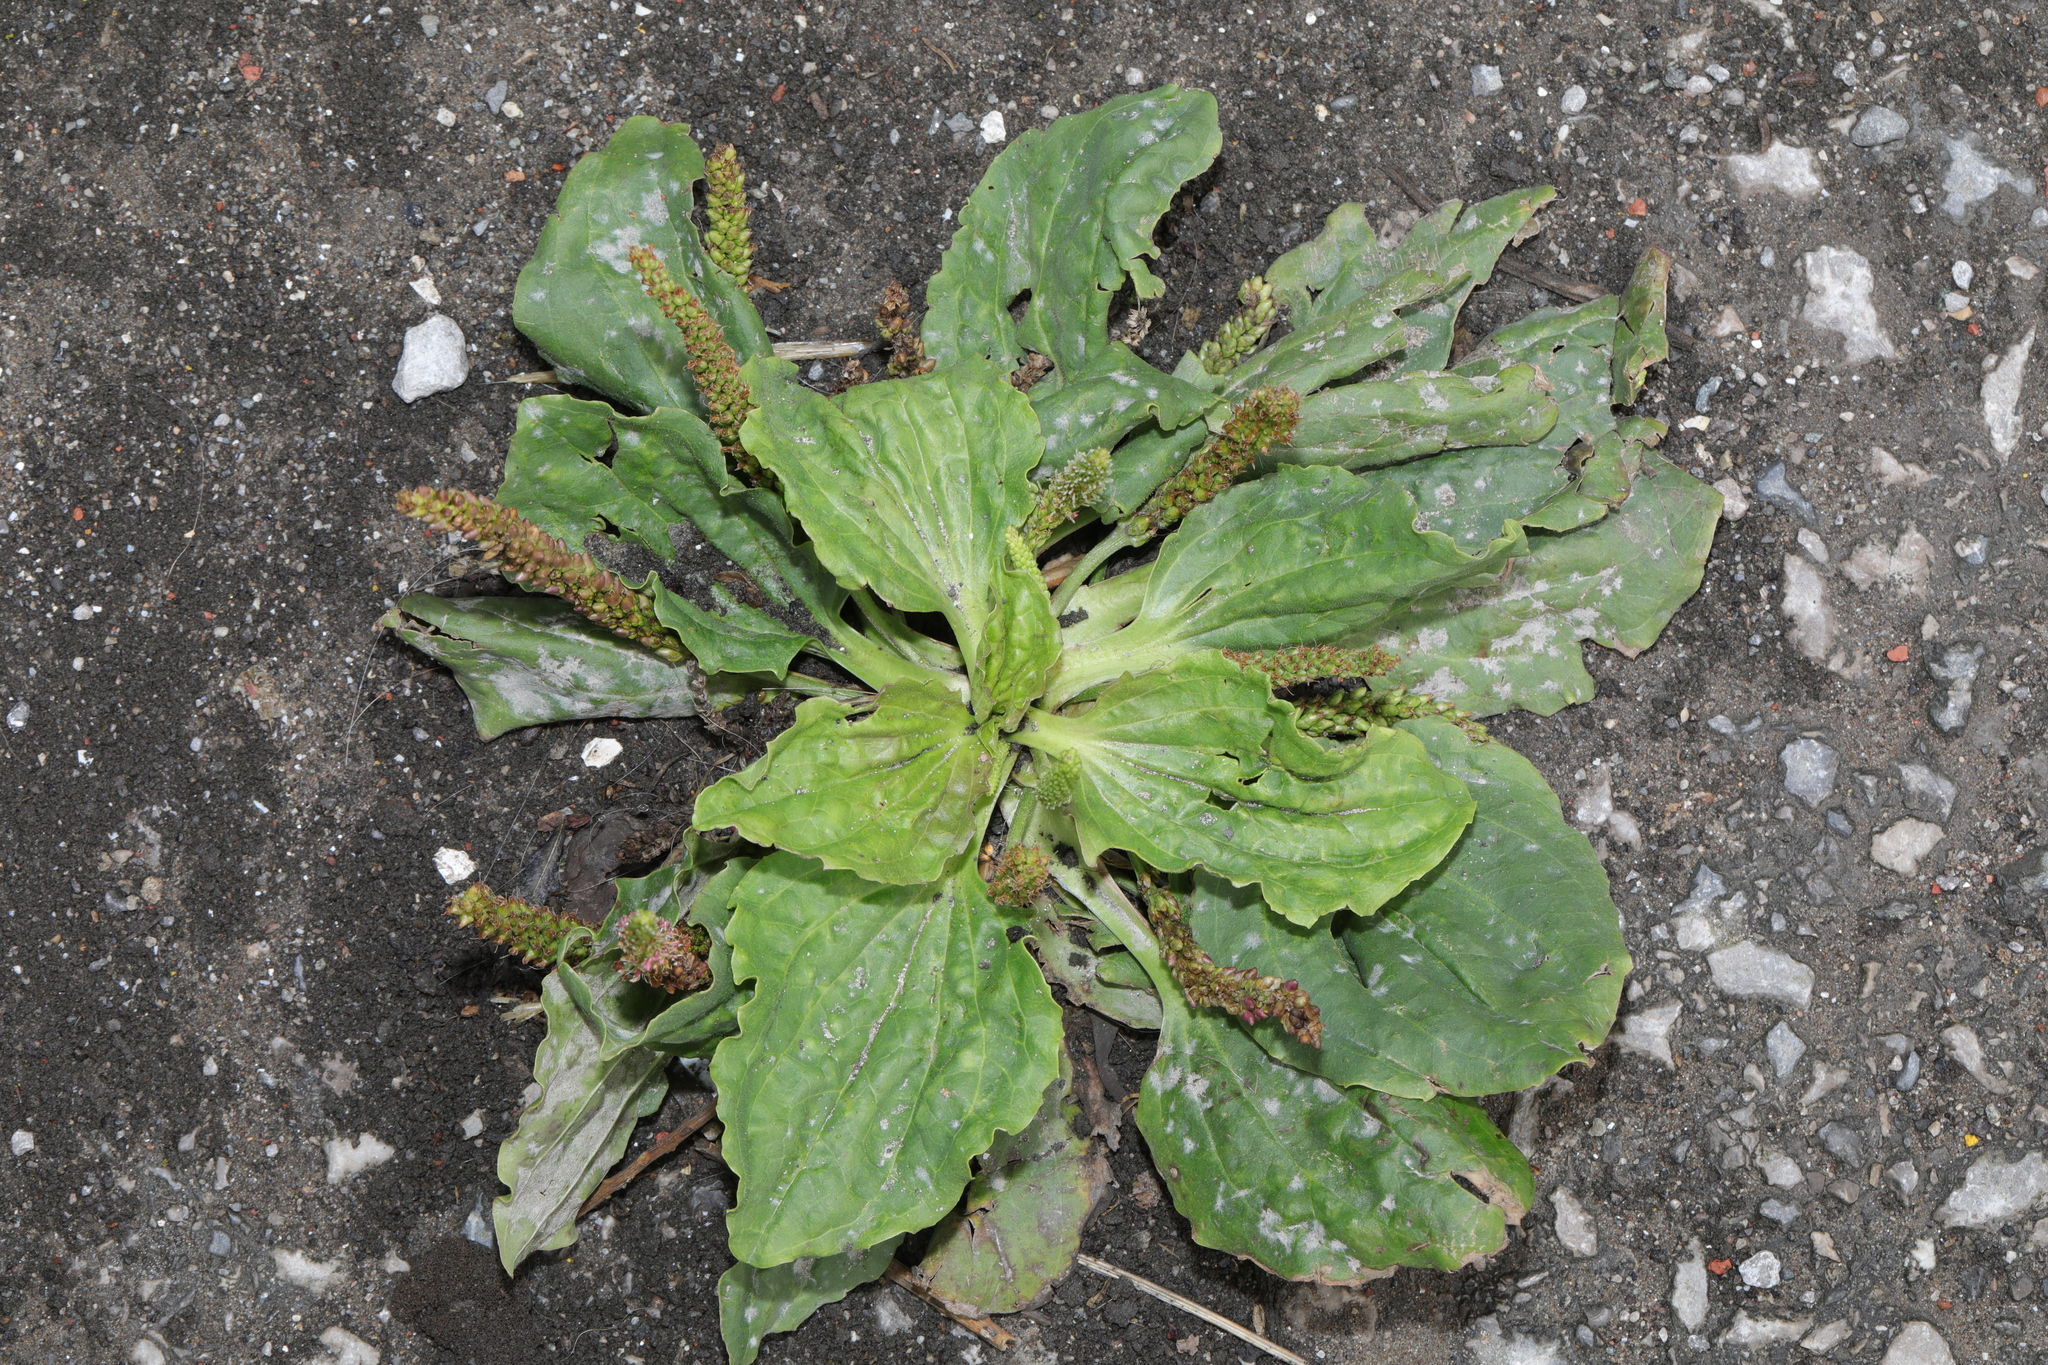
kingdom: Plantae
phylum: Tracheophyta
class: Magnoliopsida
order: Lamiales
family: Plantaginaceae
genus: Plantago
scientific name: Plantago major
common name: Common plantain
